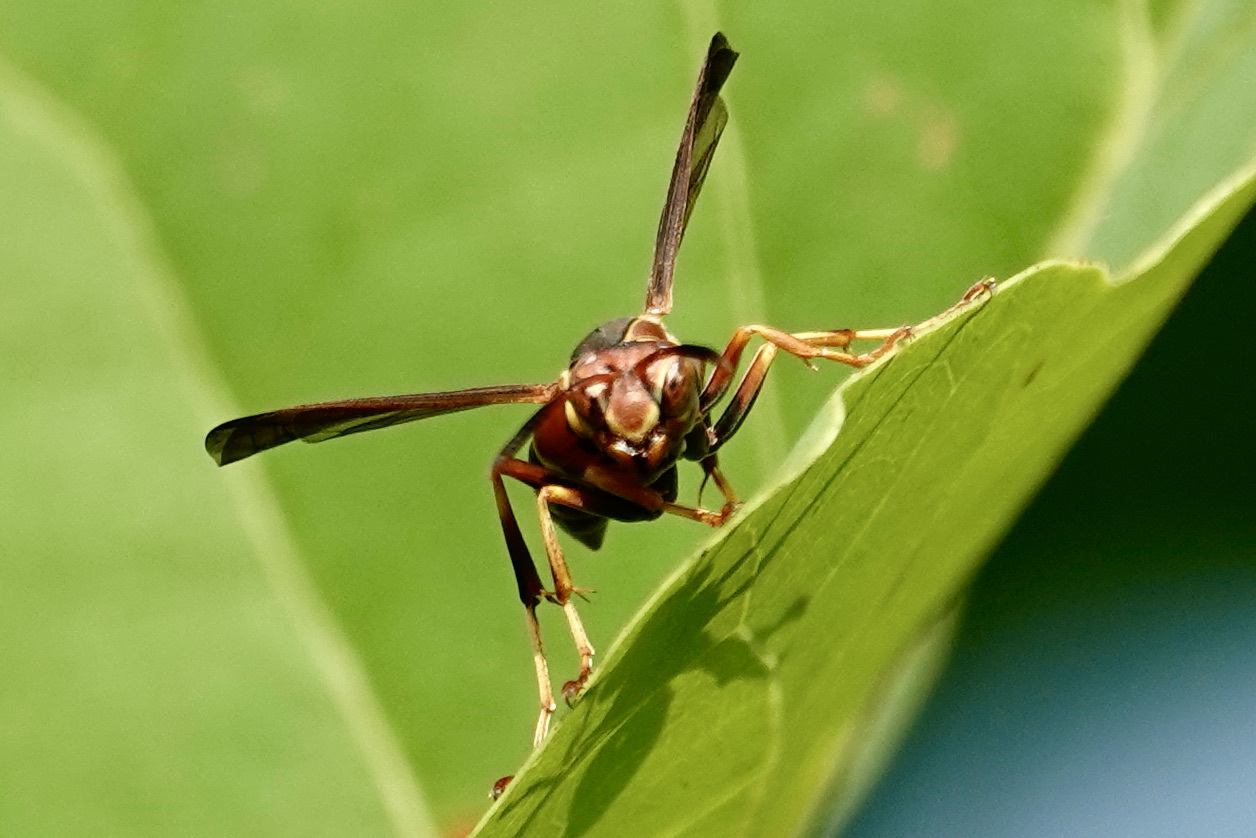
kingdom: Animalia
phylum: Arthropoda
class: Insecta
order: Hymenoptera
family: Eumenidae
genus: Polistes
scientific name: Polistes dorsalis
